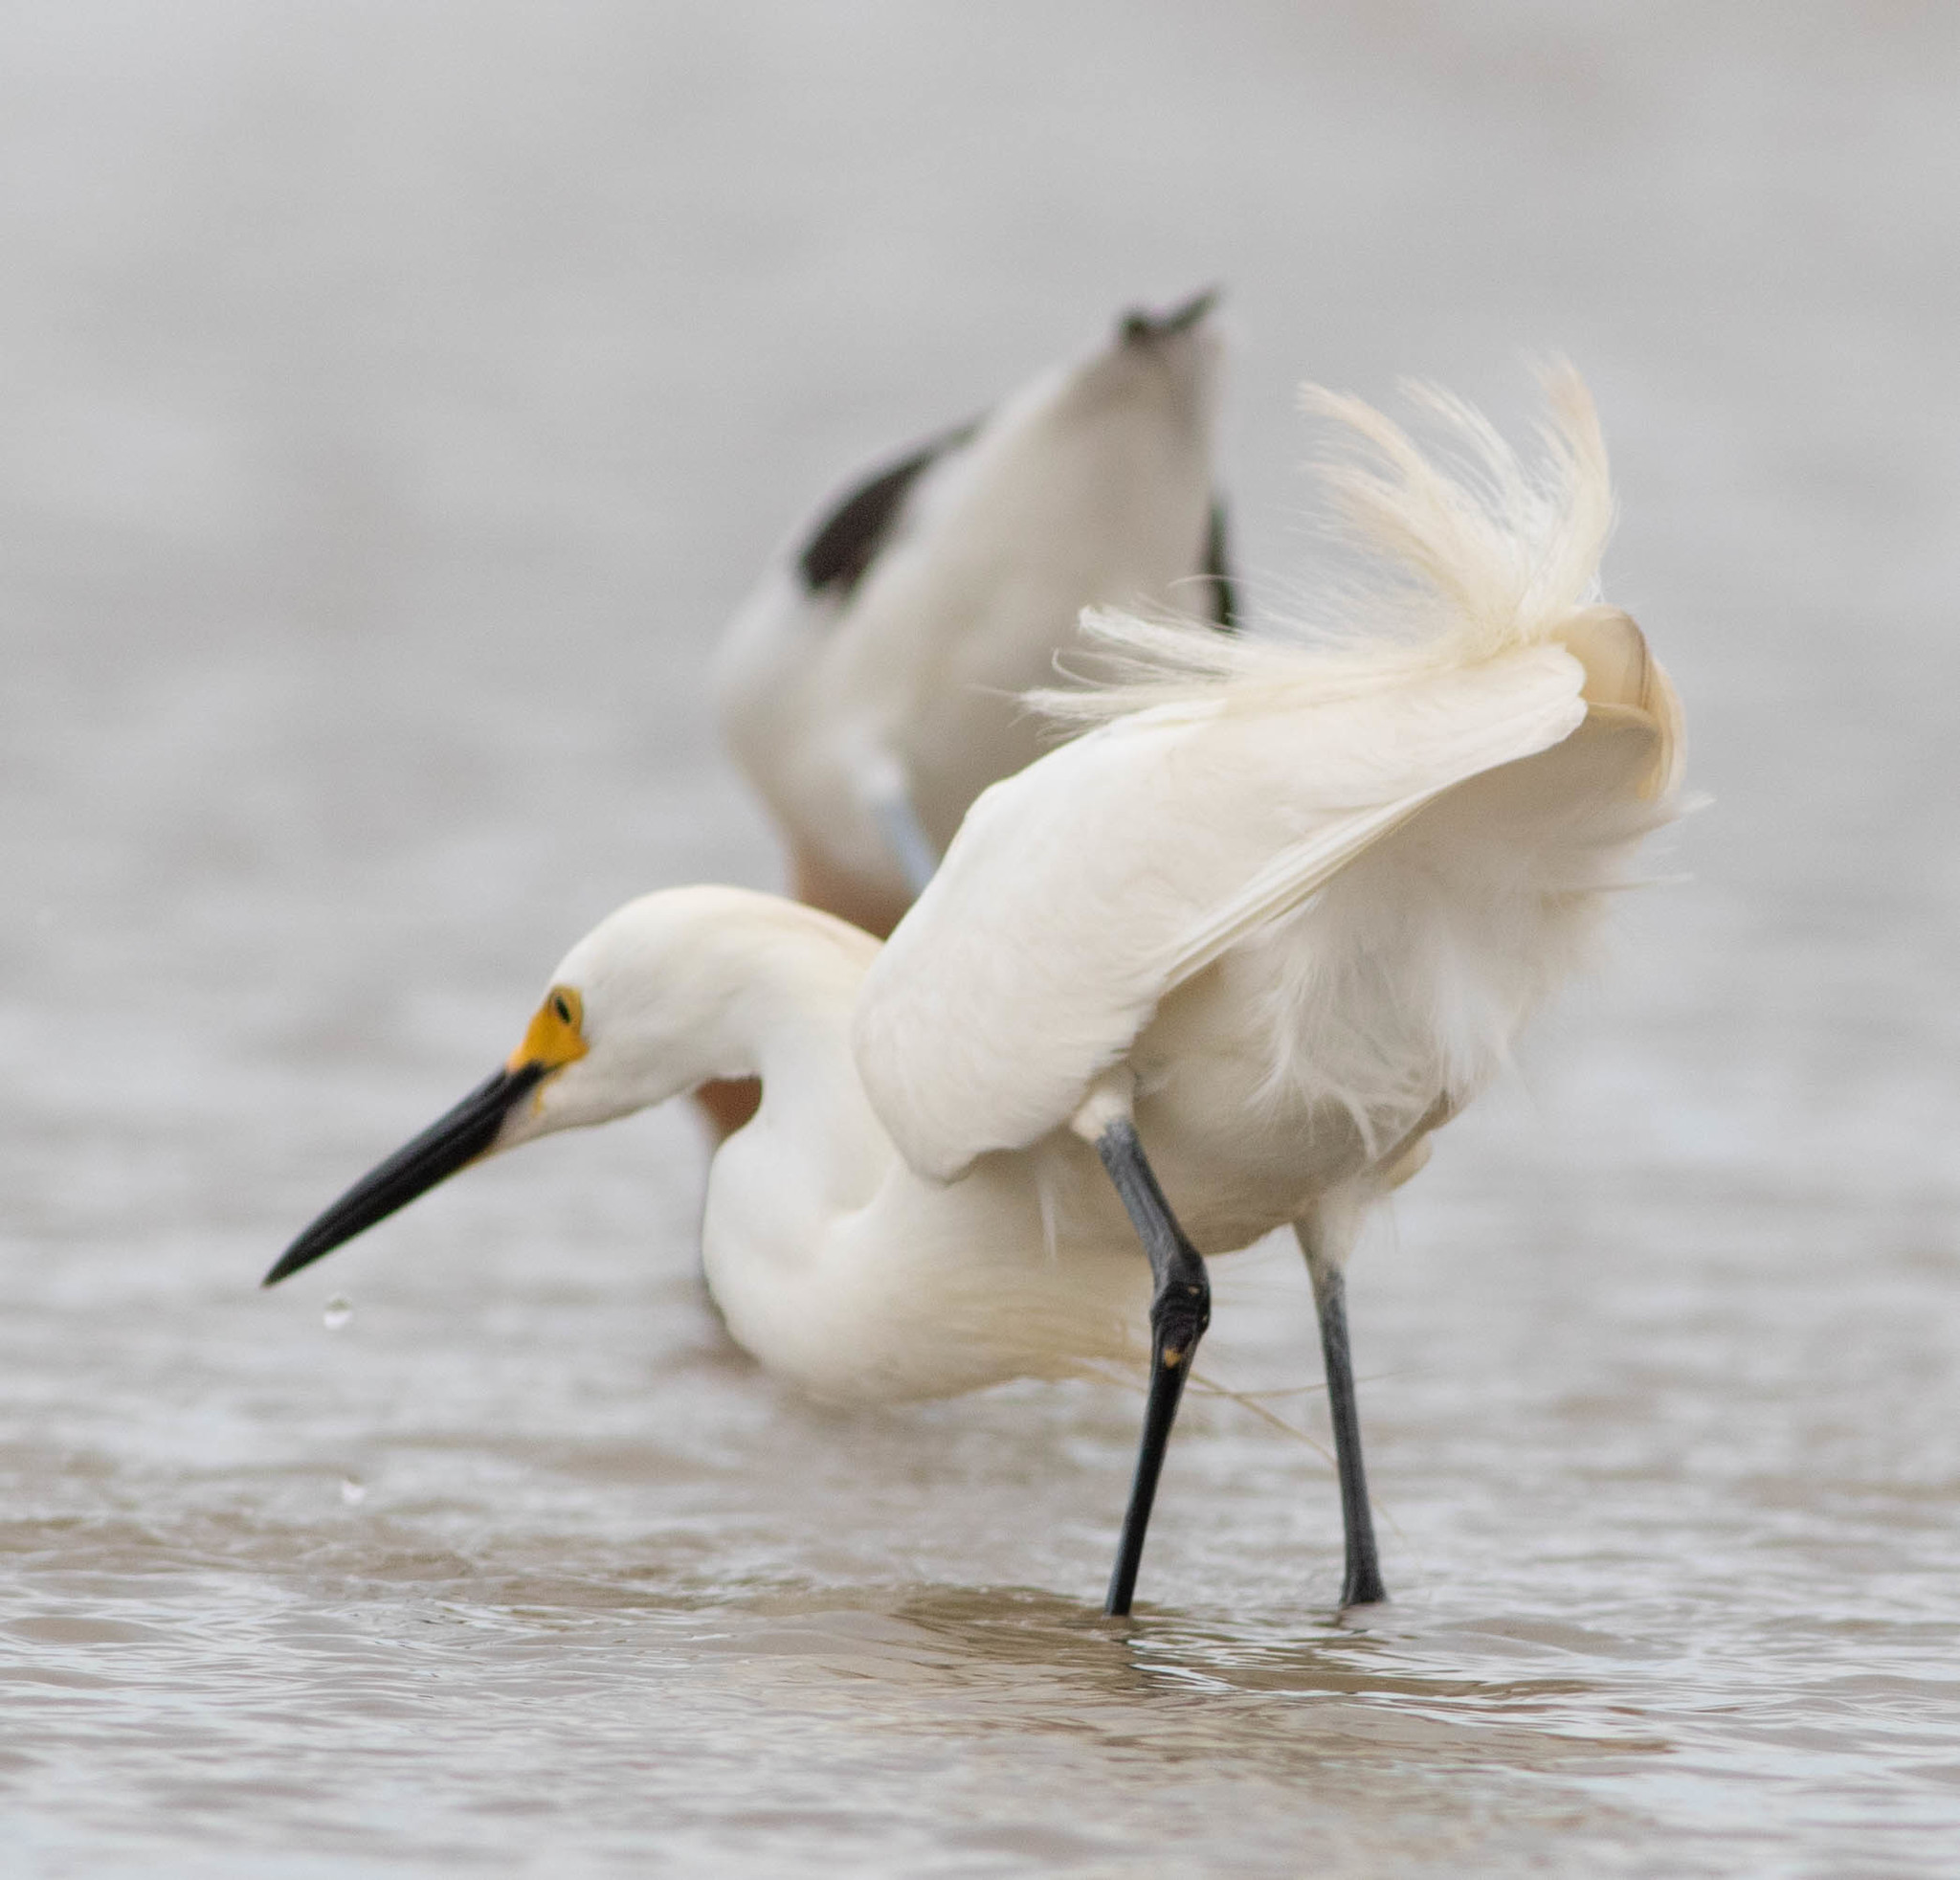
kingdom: Animalia
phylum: Chordata
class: Aves
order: Pelecaniformes
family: Ardeidae
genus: Egretta
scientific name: Egretta thula
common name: Snowy egret
